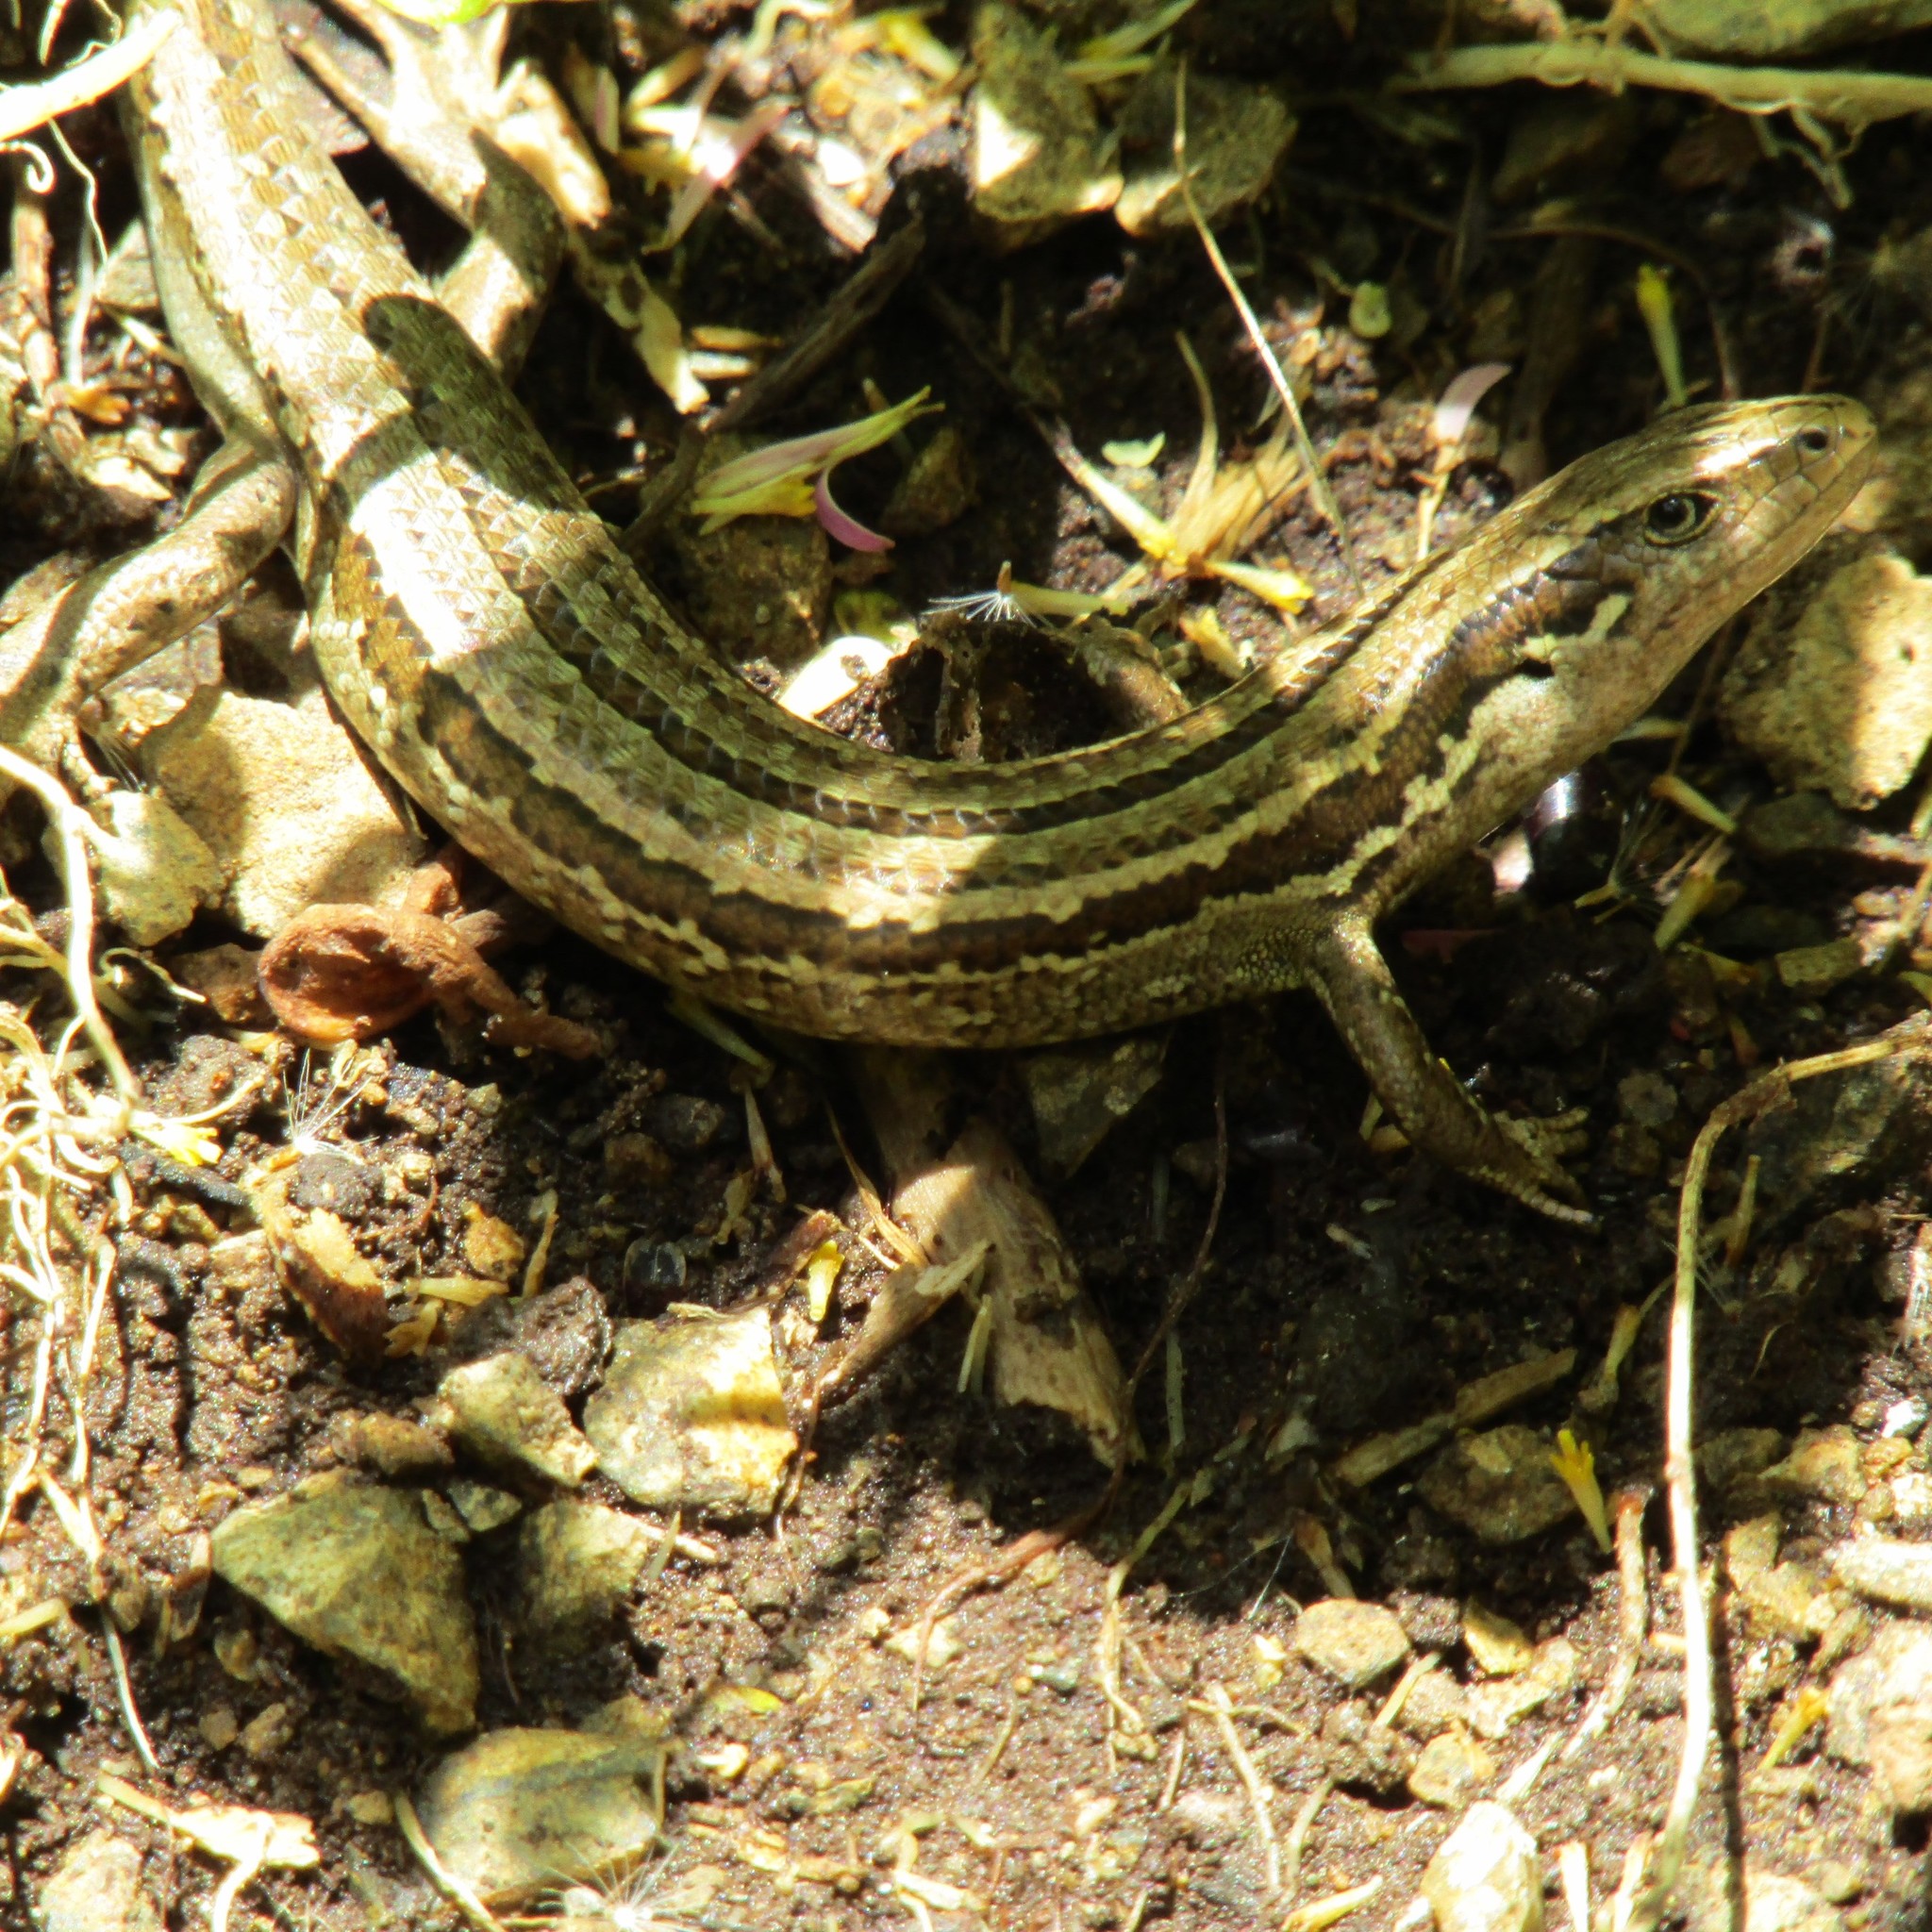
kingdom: Animalia
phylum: Chordata
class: Squamata
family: Scincidae
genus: Oligosoma
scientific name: Oligosoma polychroma
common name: Common new zealand skink
